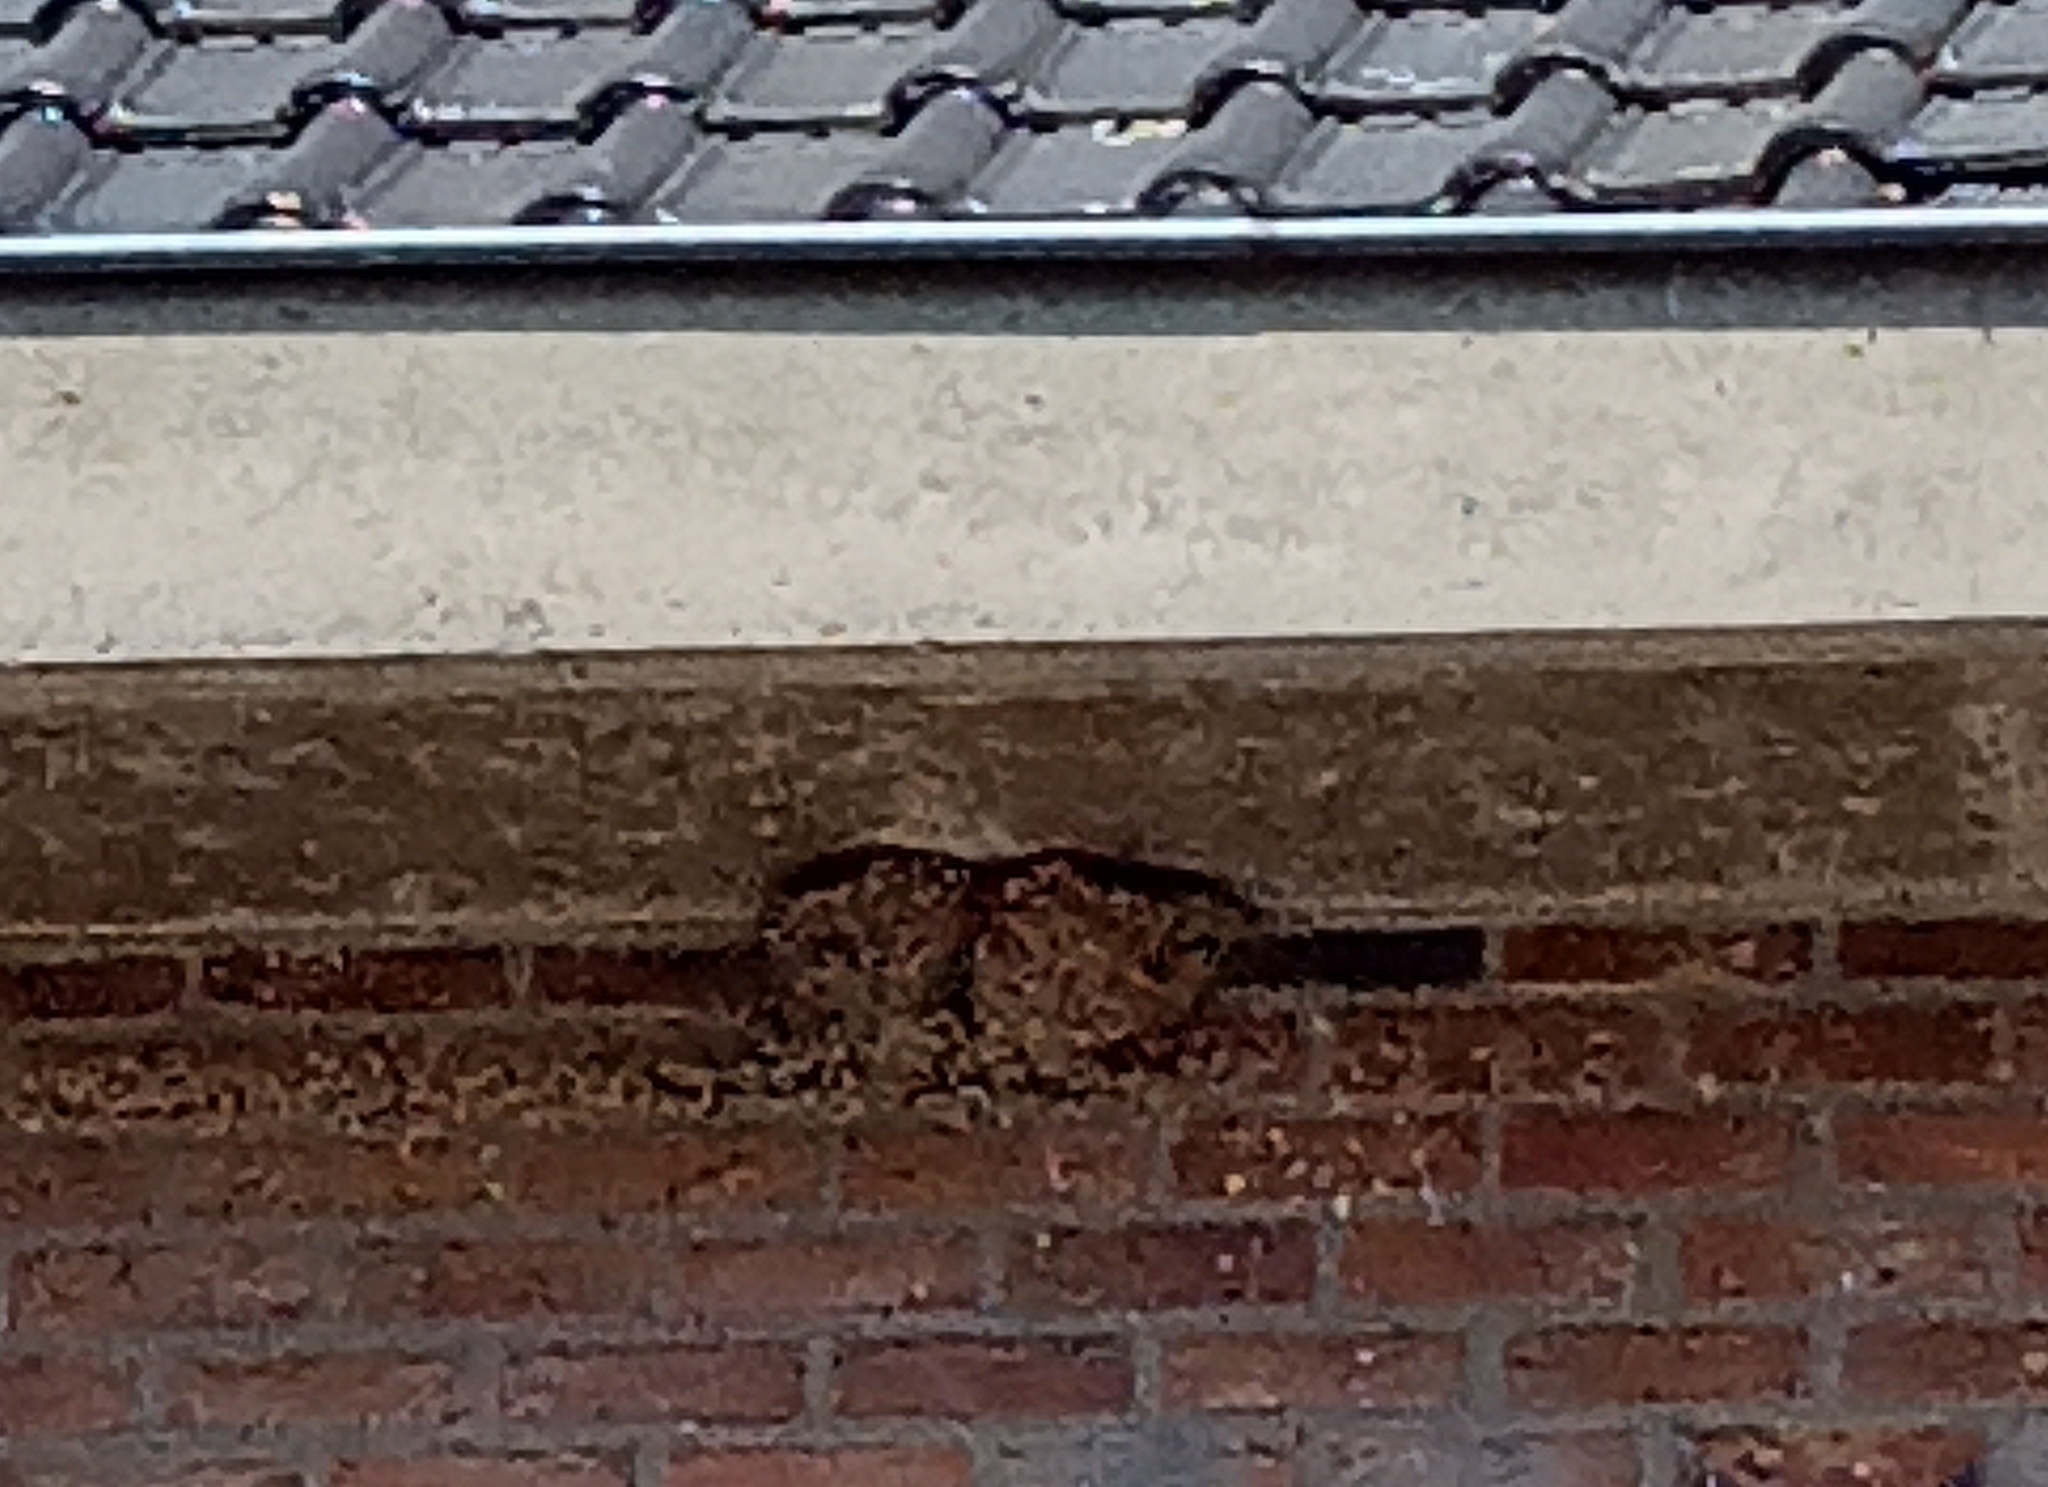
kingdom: Animalia
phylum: Chordata
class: Aves
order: Passeriformes
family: Hirundinidae
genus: Delichon
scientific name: Delichon urbicum
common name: Common house martin
